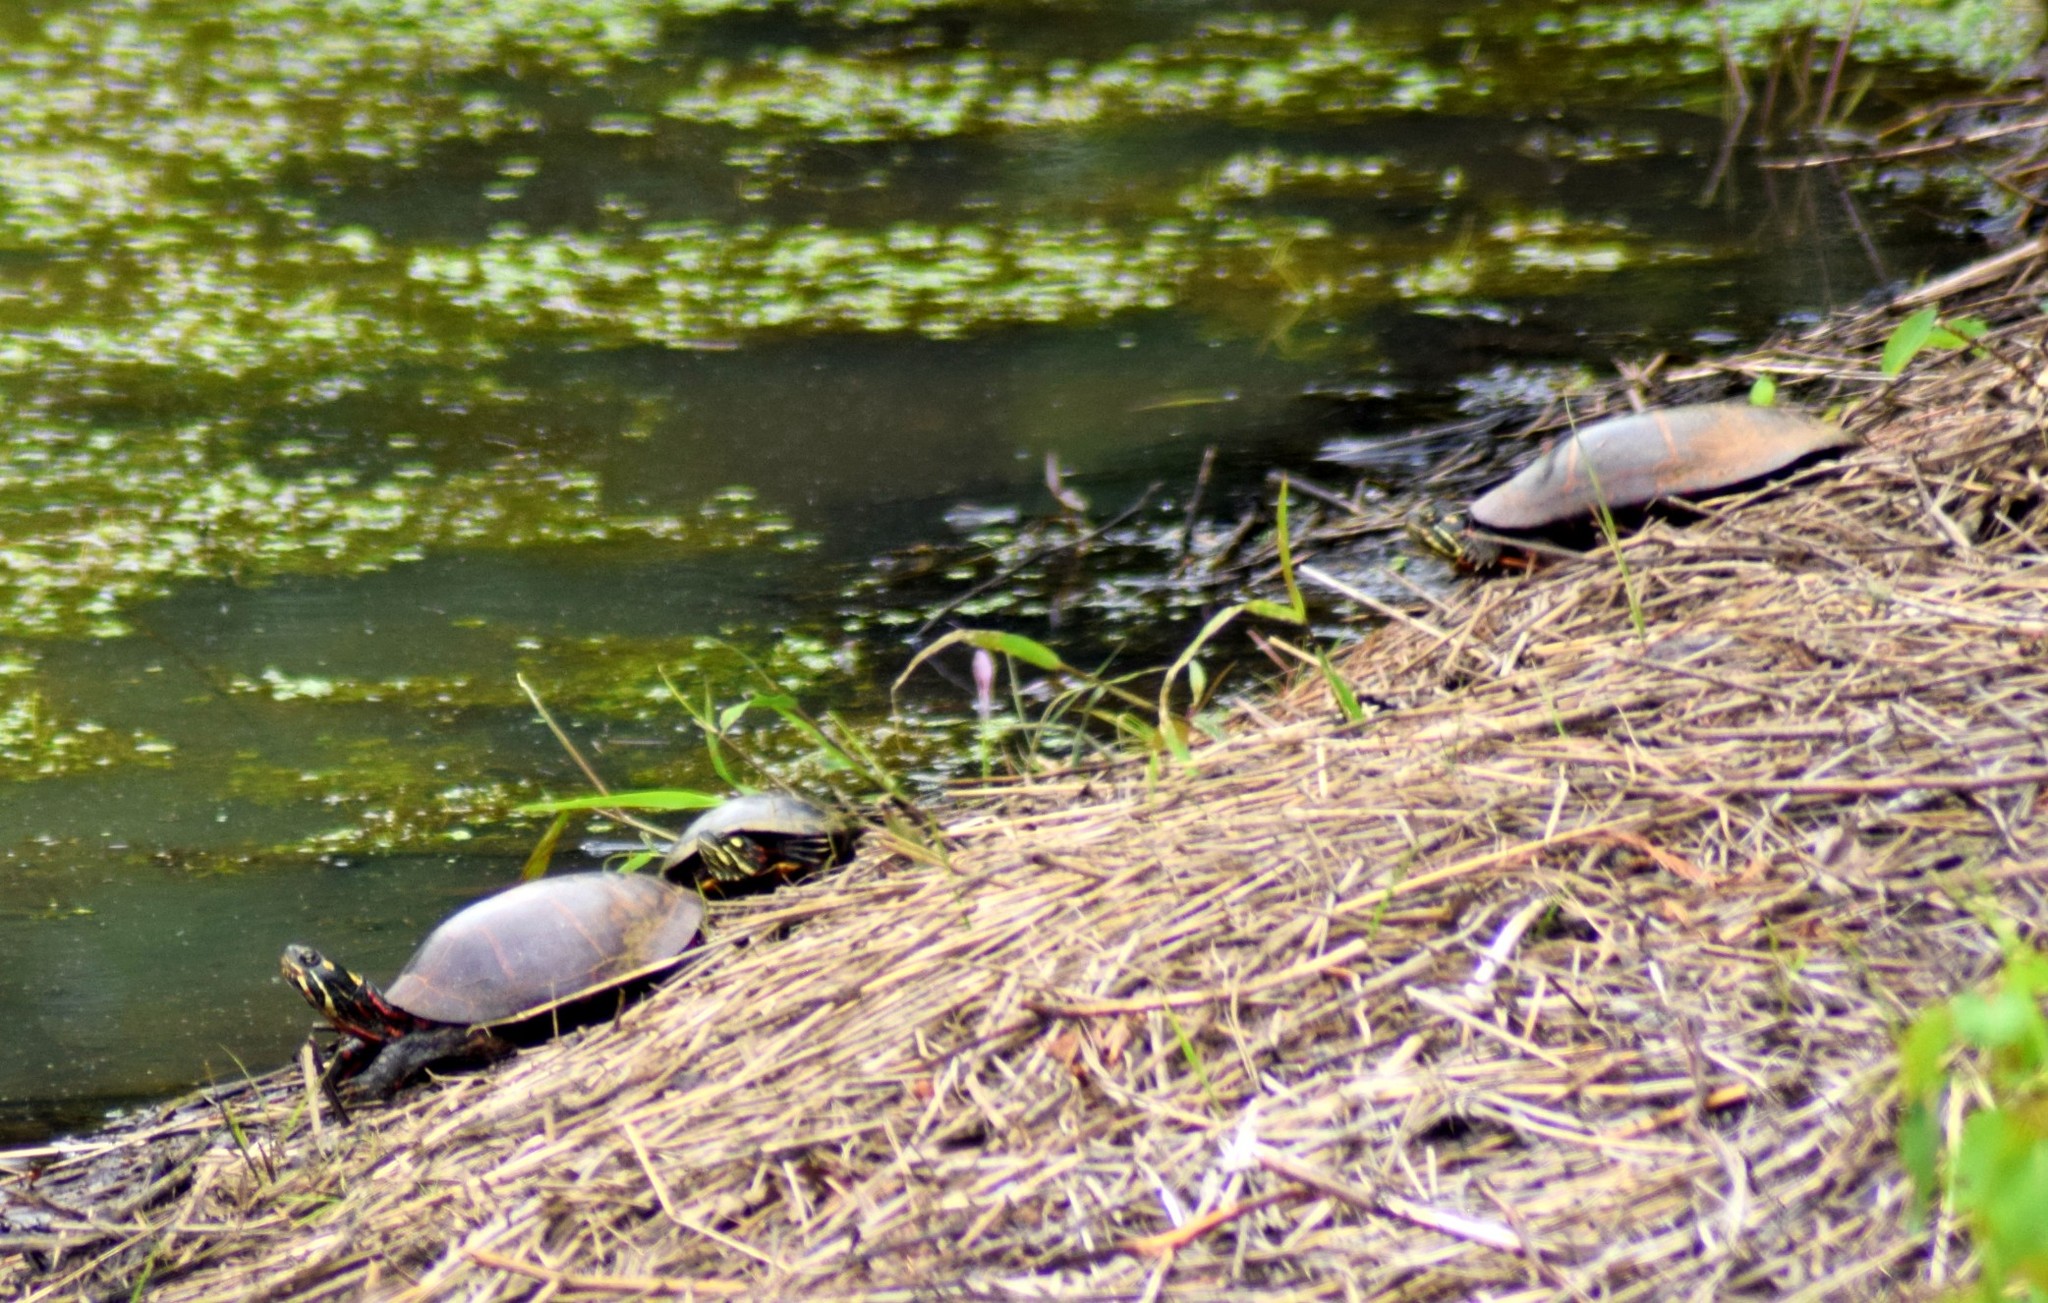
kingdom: Animalia
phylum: Chordata
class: Testudines
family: Emydidae
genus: Chrysemys
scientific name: Chrysemys picta
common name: Painted turtle
